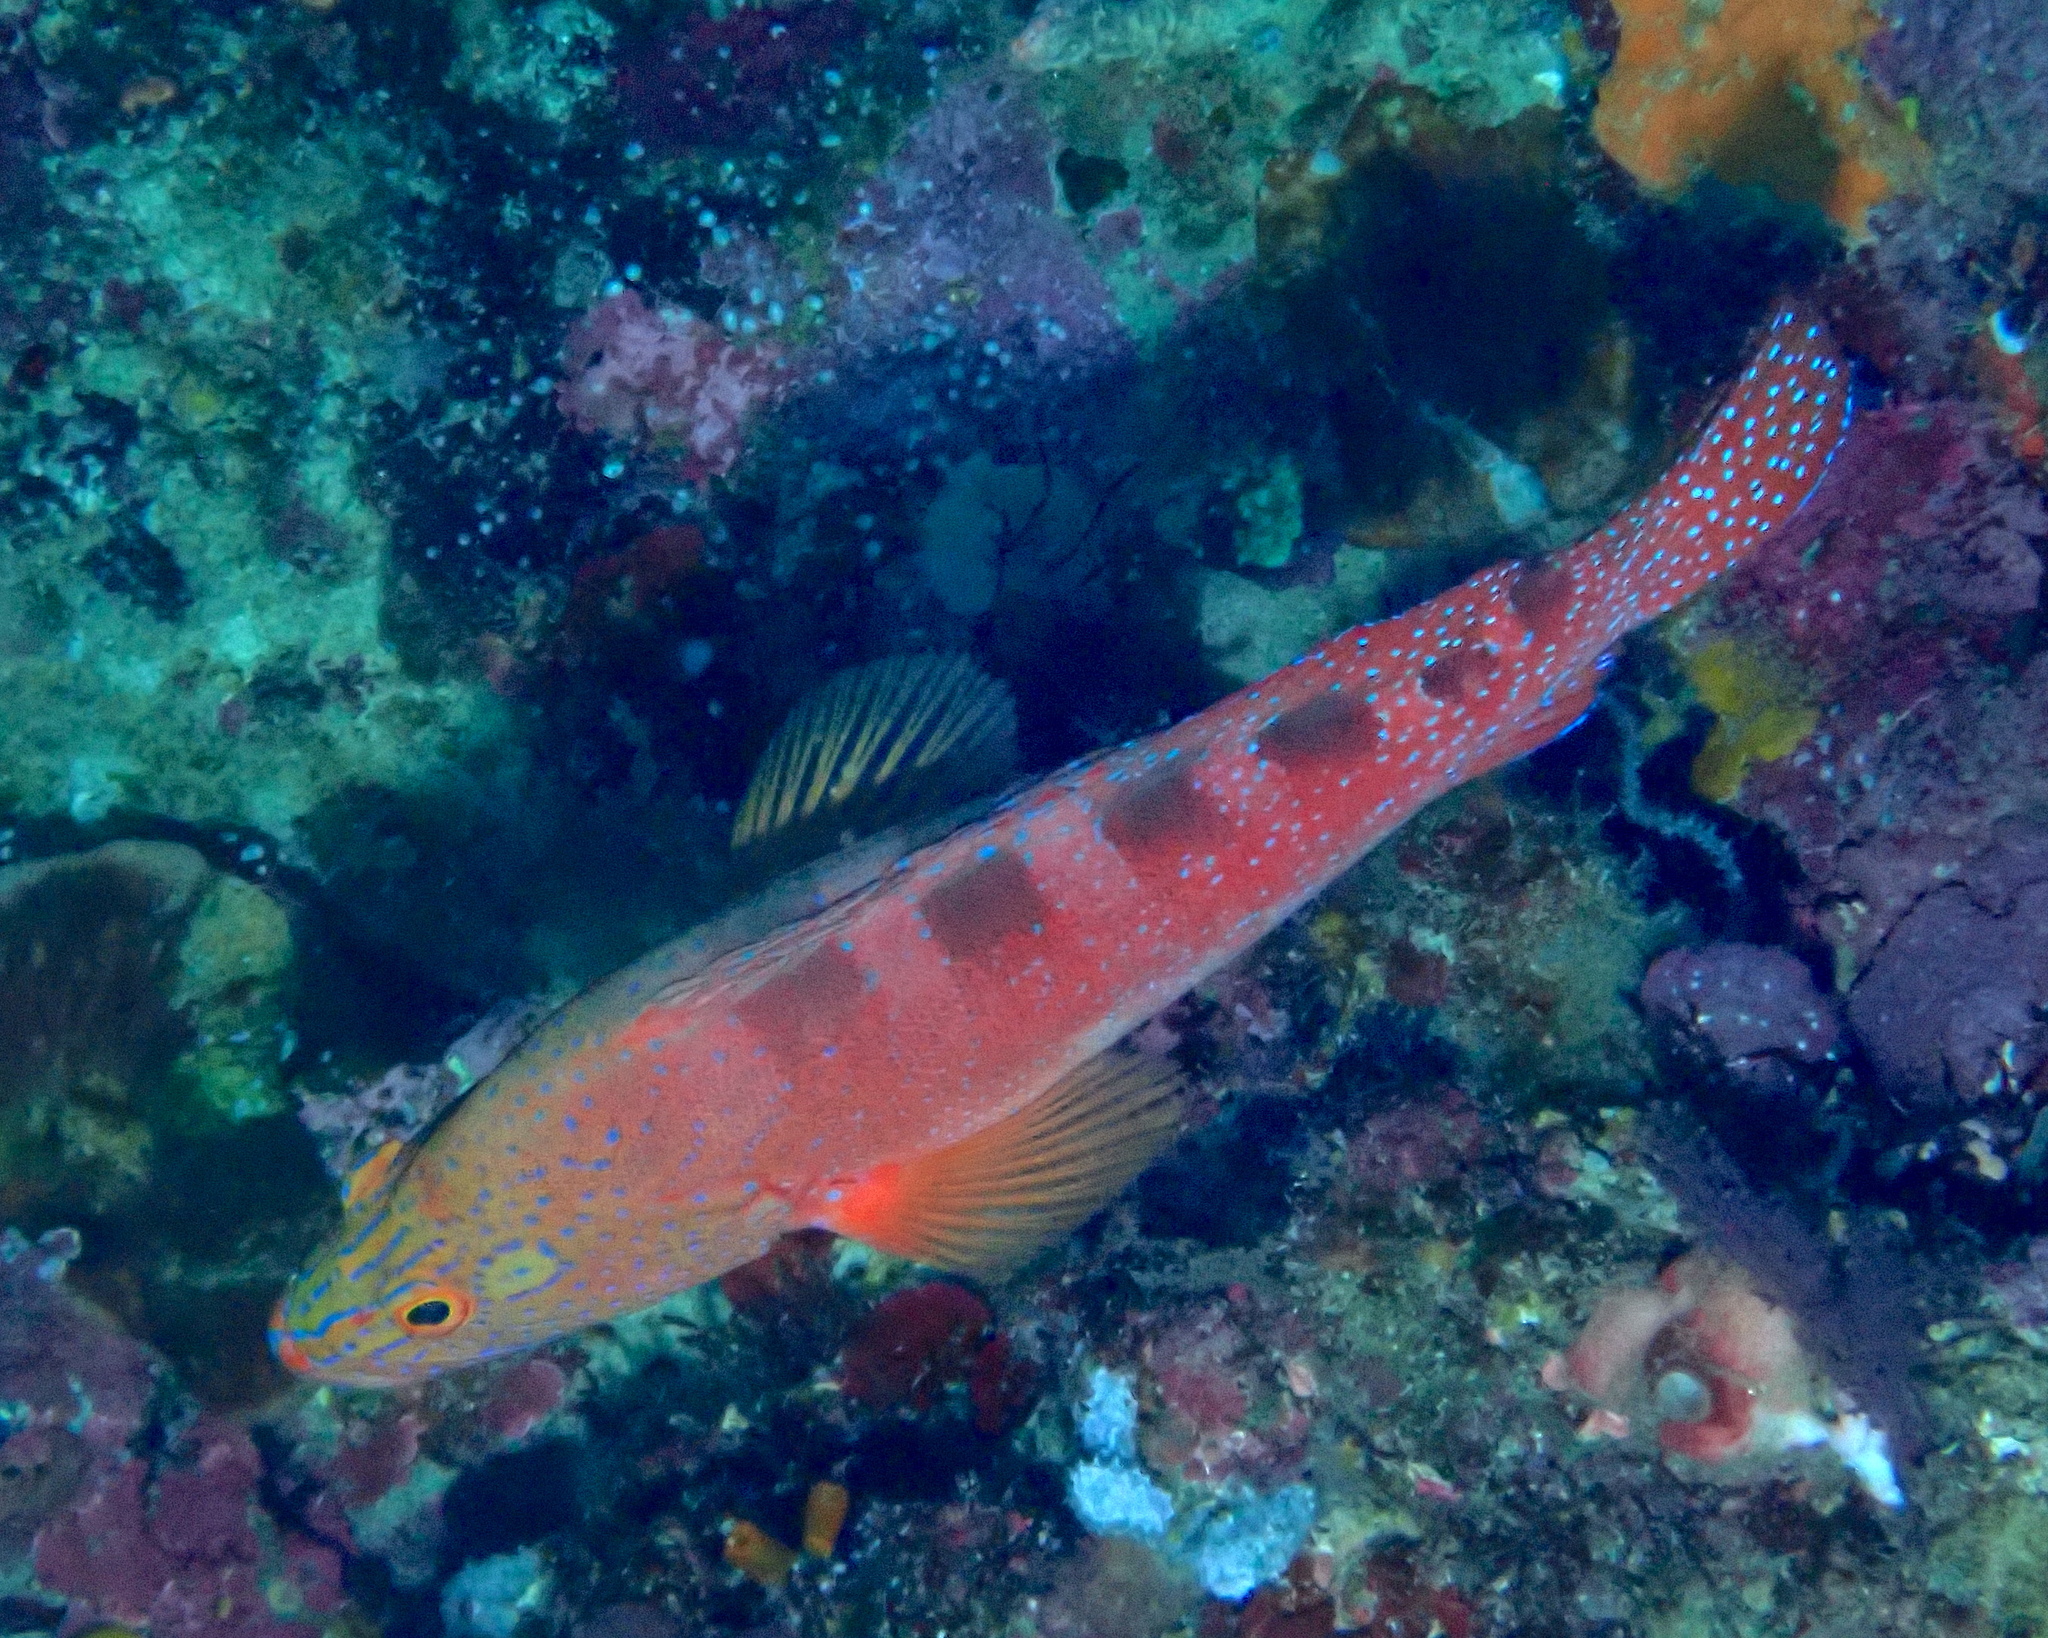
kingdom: Animalia
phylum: Chordata
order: Perciformes
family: Serranidae
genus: Cephalopholis
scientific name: Cephalopholis sexmaculata
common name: Sixblotch hind
